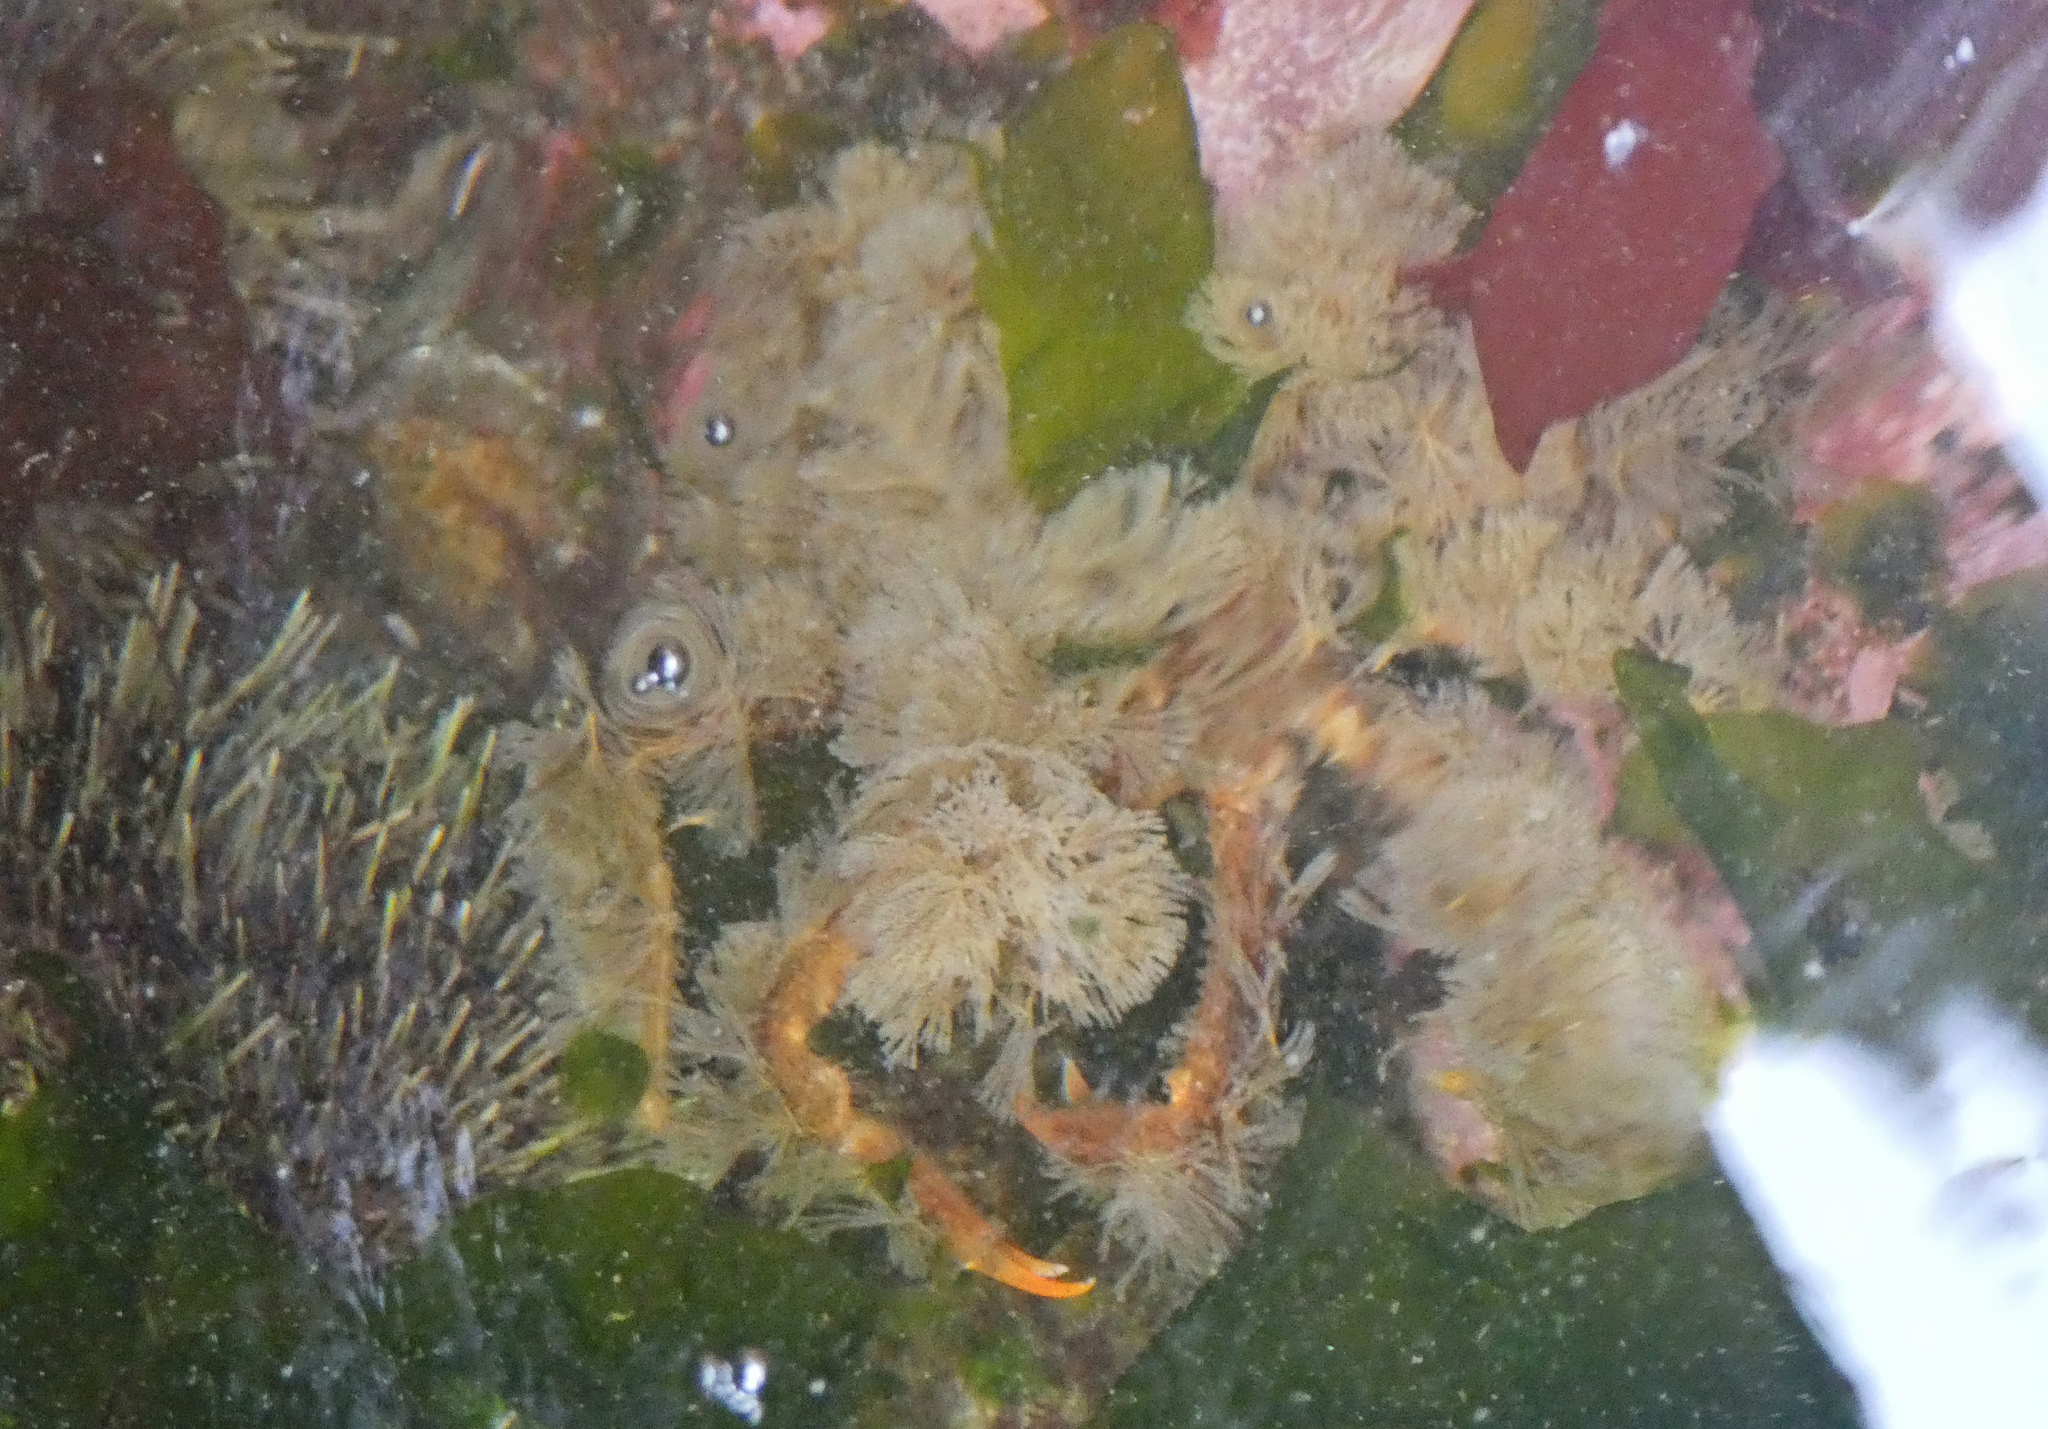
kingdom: Animalia
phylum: Arthropoda
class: Malacostraca
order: Decapoda
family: Oregoniidae
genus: Oregonia
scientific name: Oregonia gracilis
